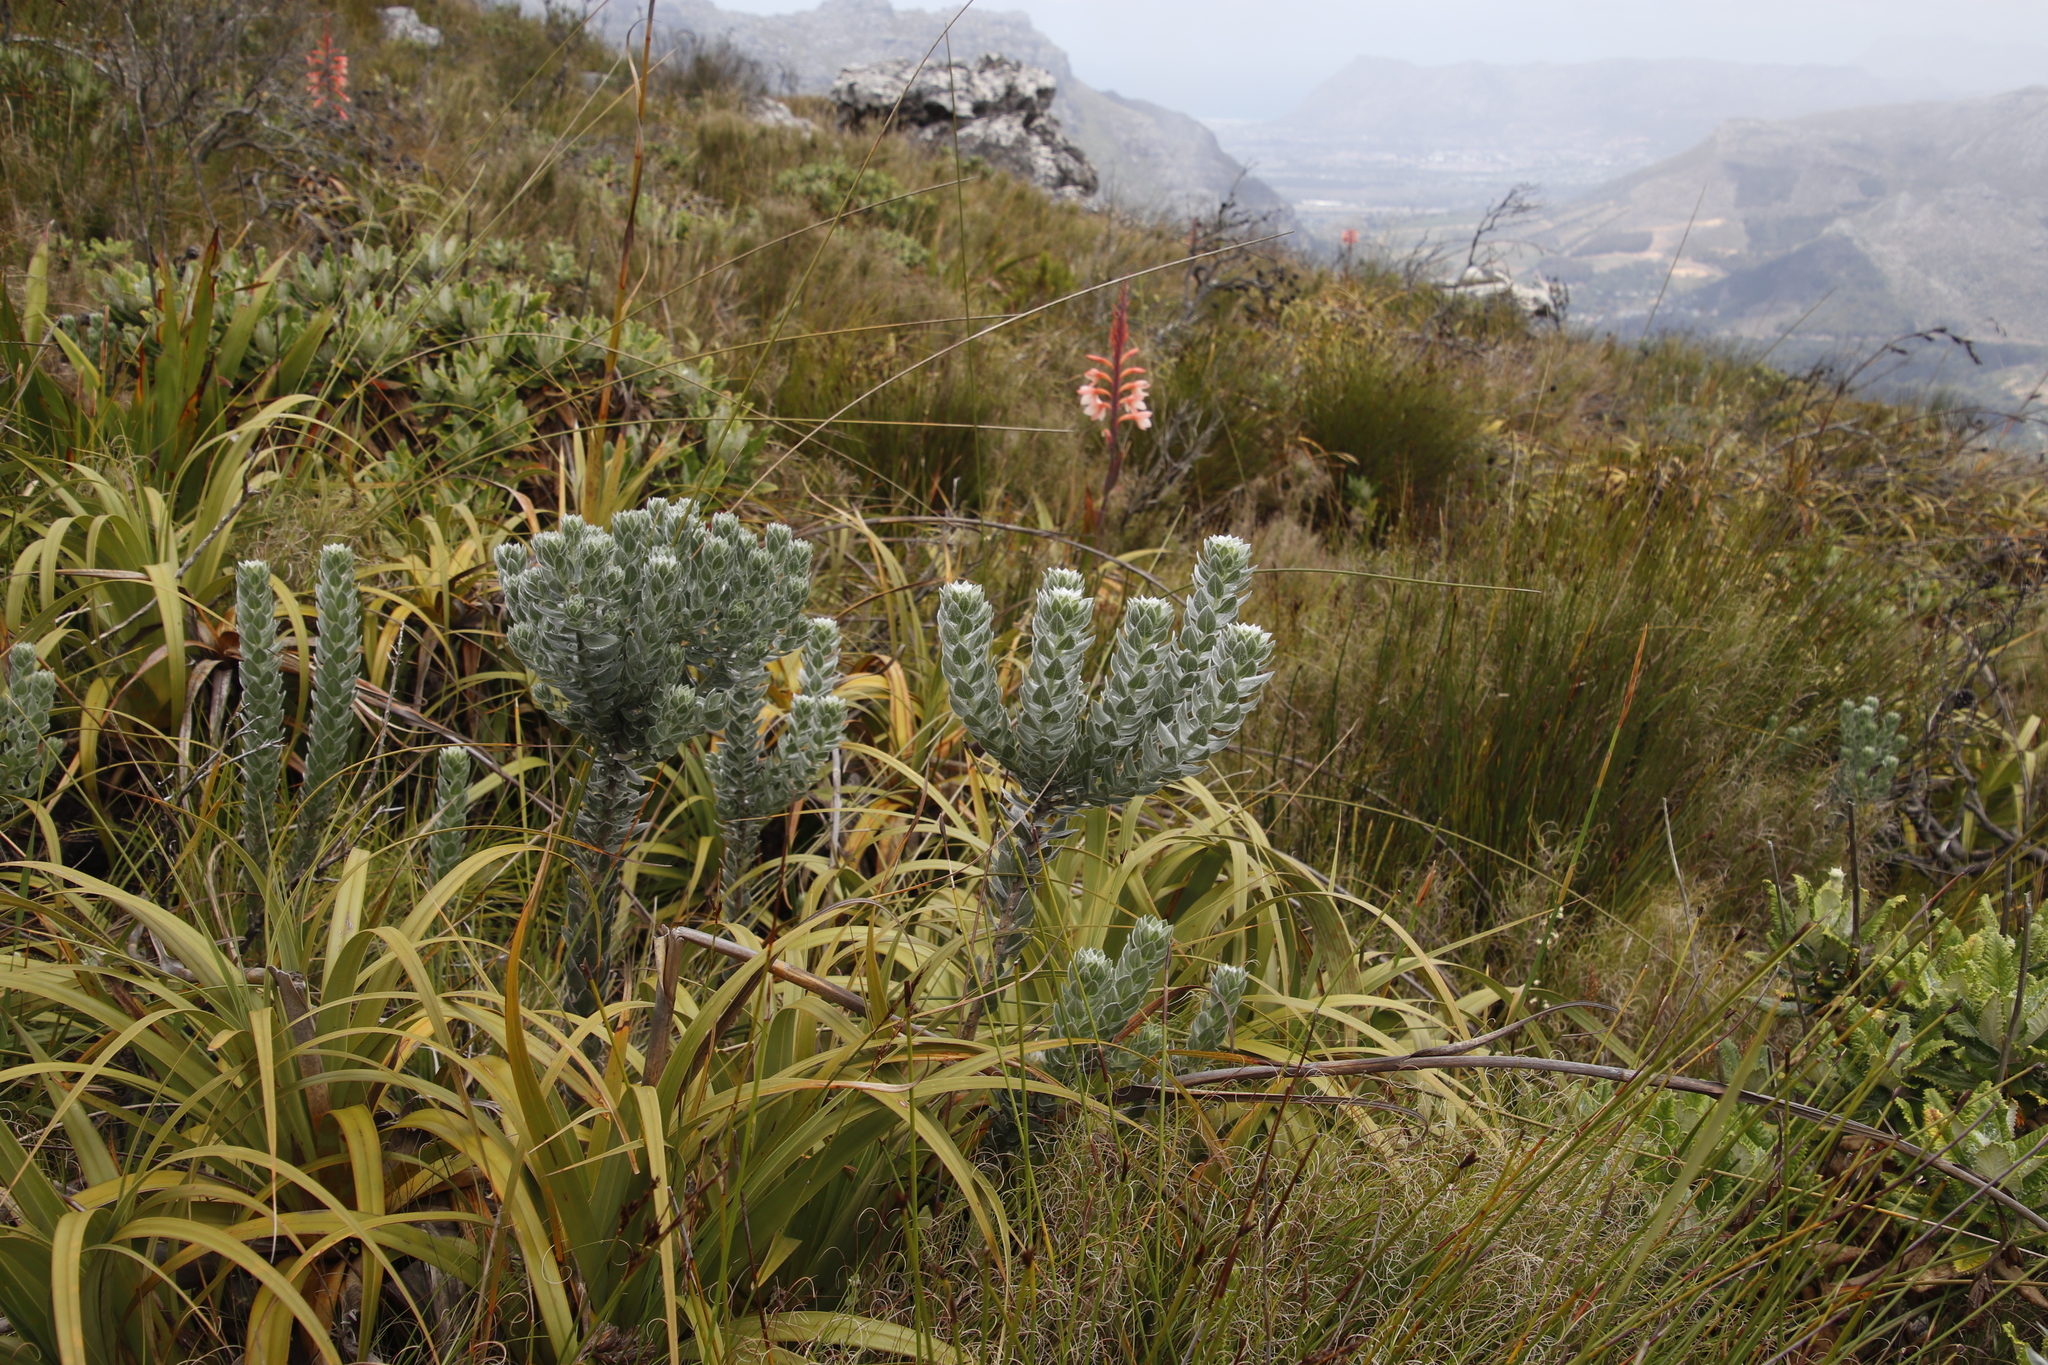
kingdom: Plantae
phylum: Tracheophyta
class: Magnoliopsida
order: Fabales
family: Fabaceae
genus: Xiphotheca
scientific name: Xiphotheca fruticosa
